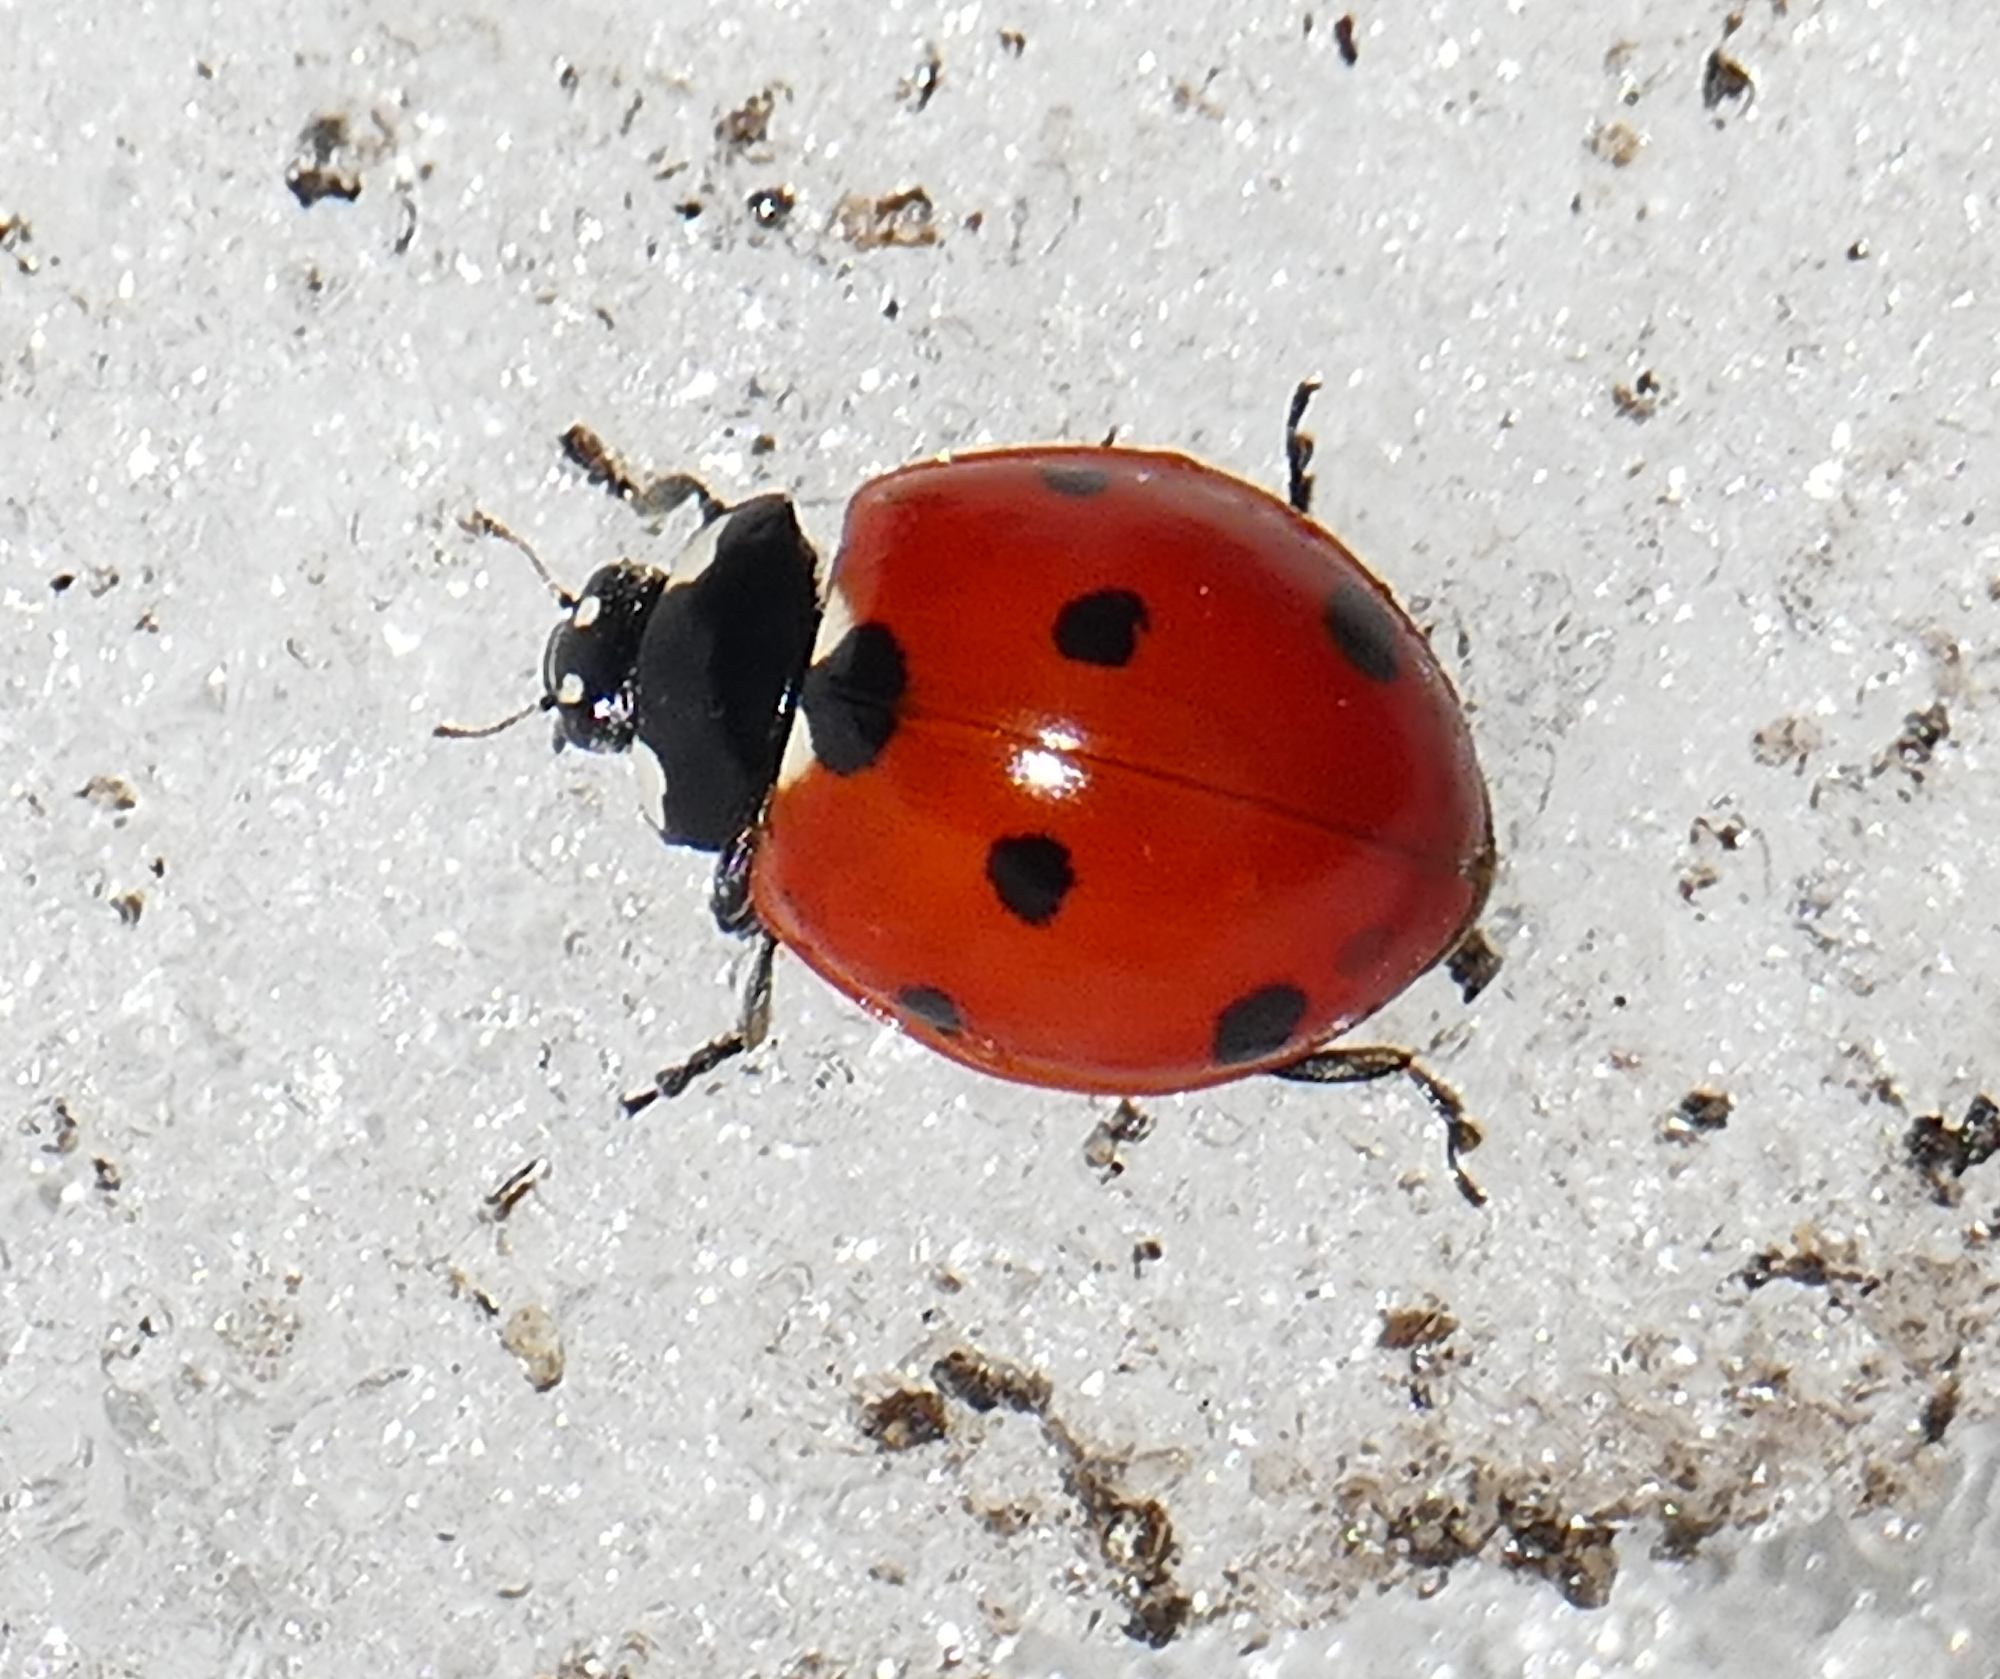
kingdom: Animalia
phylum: Arthropoda
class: Insecta
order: Coleoptera
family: Coccinellidae
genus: Coccinella
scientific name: Coccinella septempunctata
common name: Sevenspotted lady beetle
